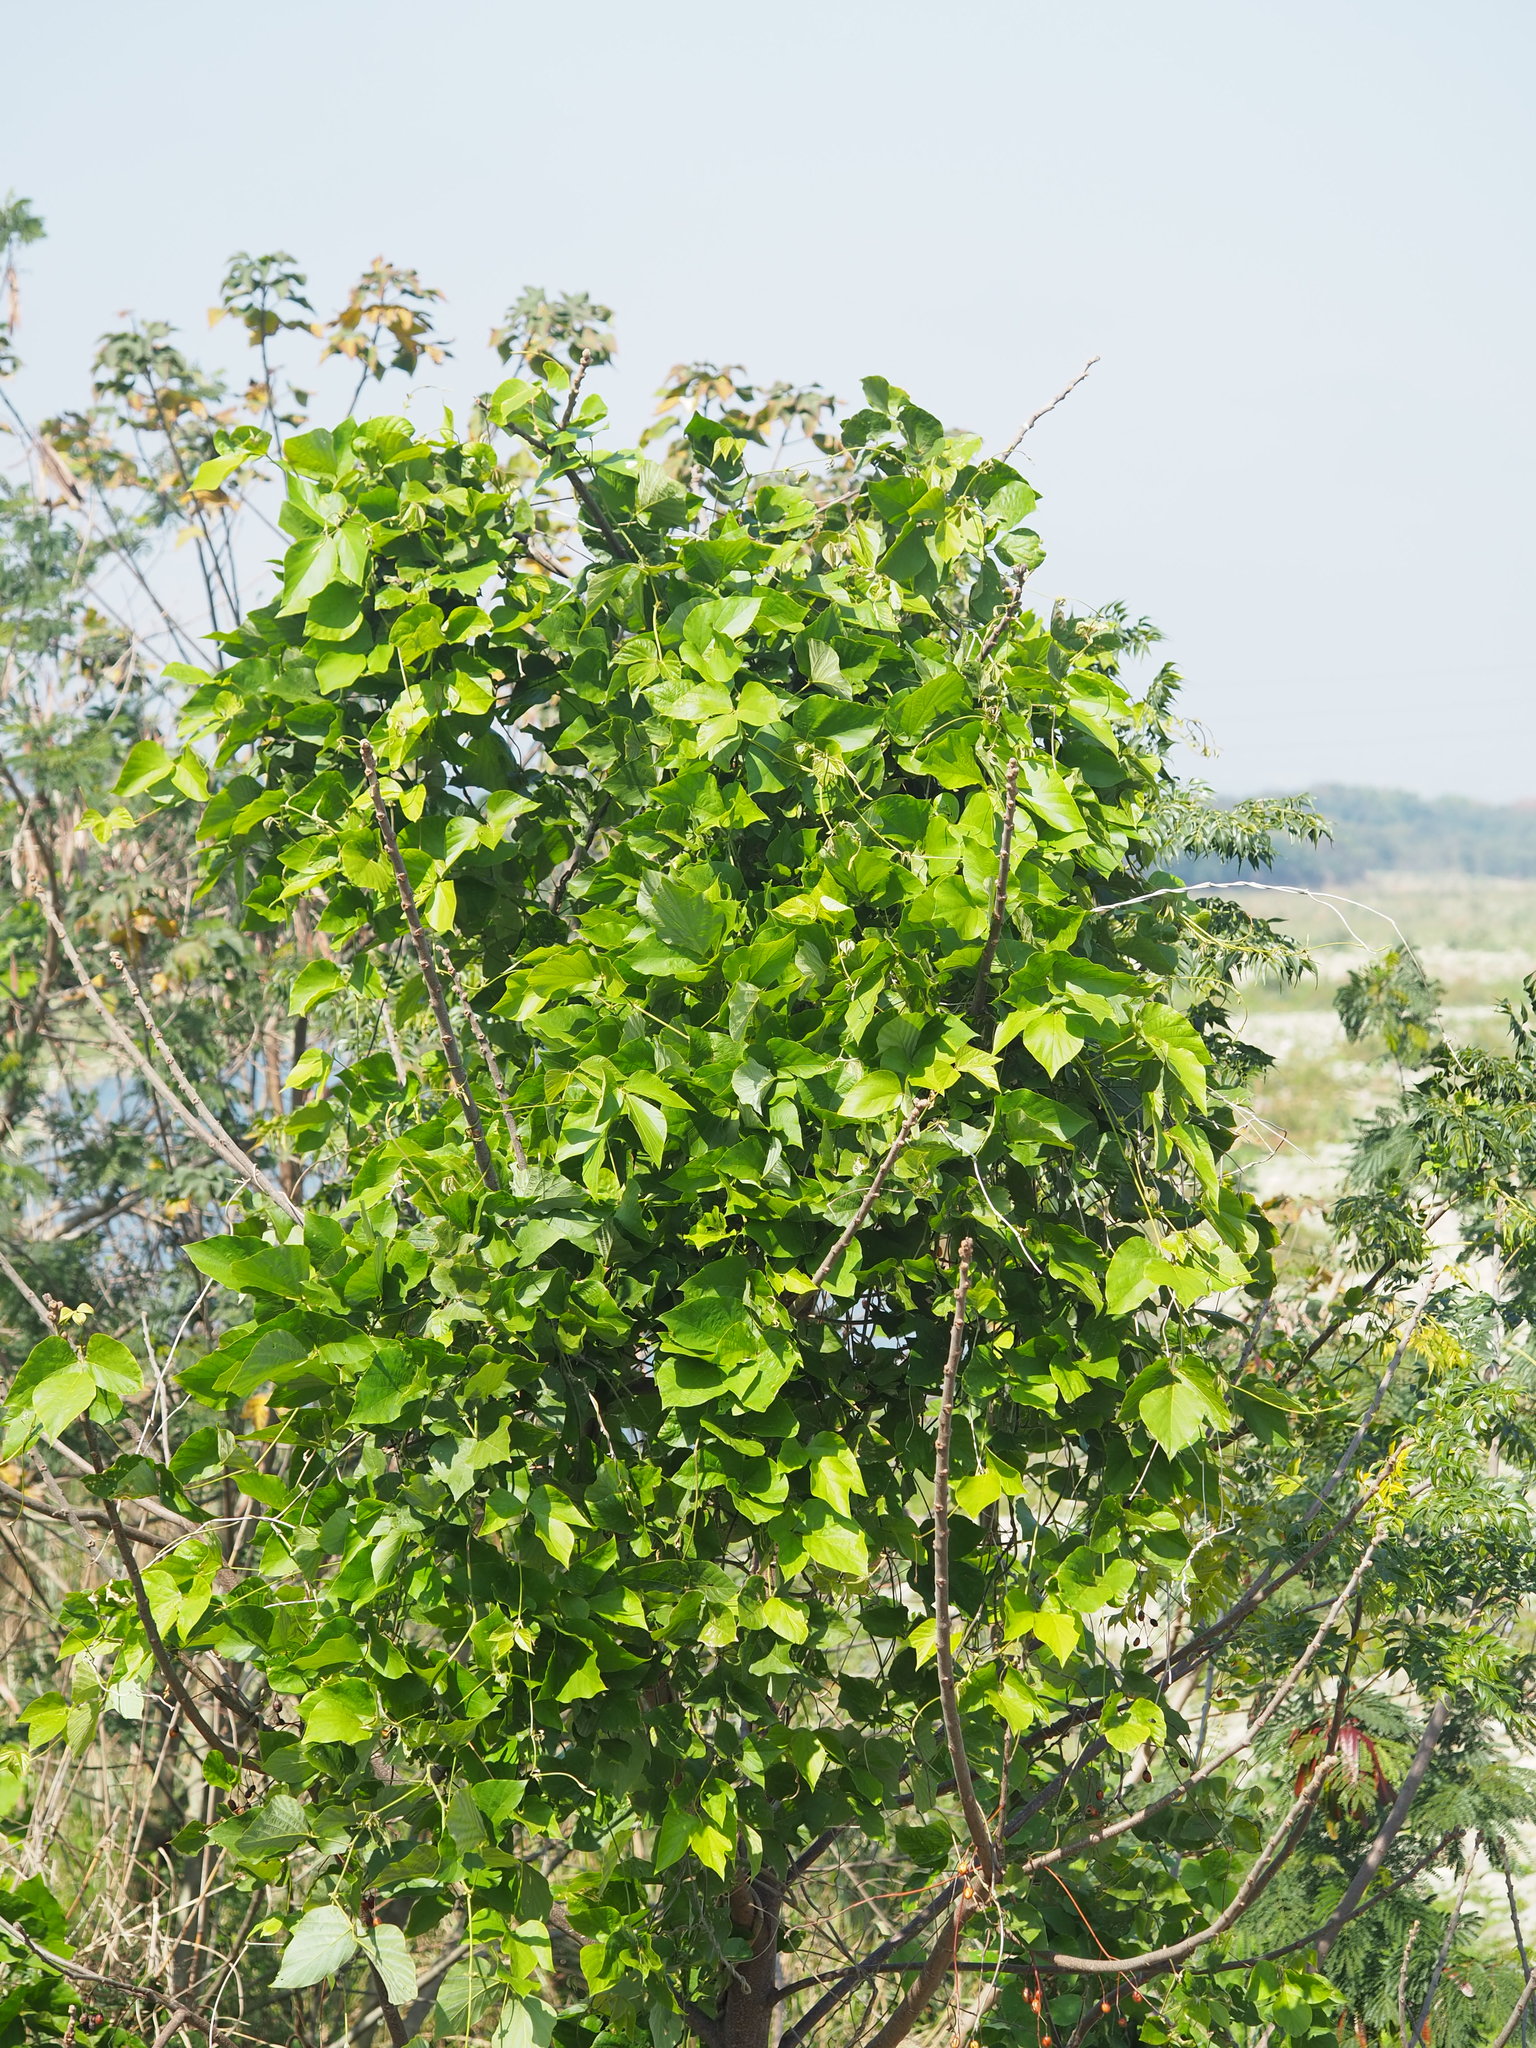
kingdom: Plantae
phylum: Tracheophyta
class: Magnoliopsida
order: Fabales
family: Fabaceae
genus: Centrosema
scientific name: Centrosema pubescens
